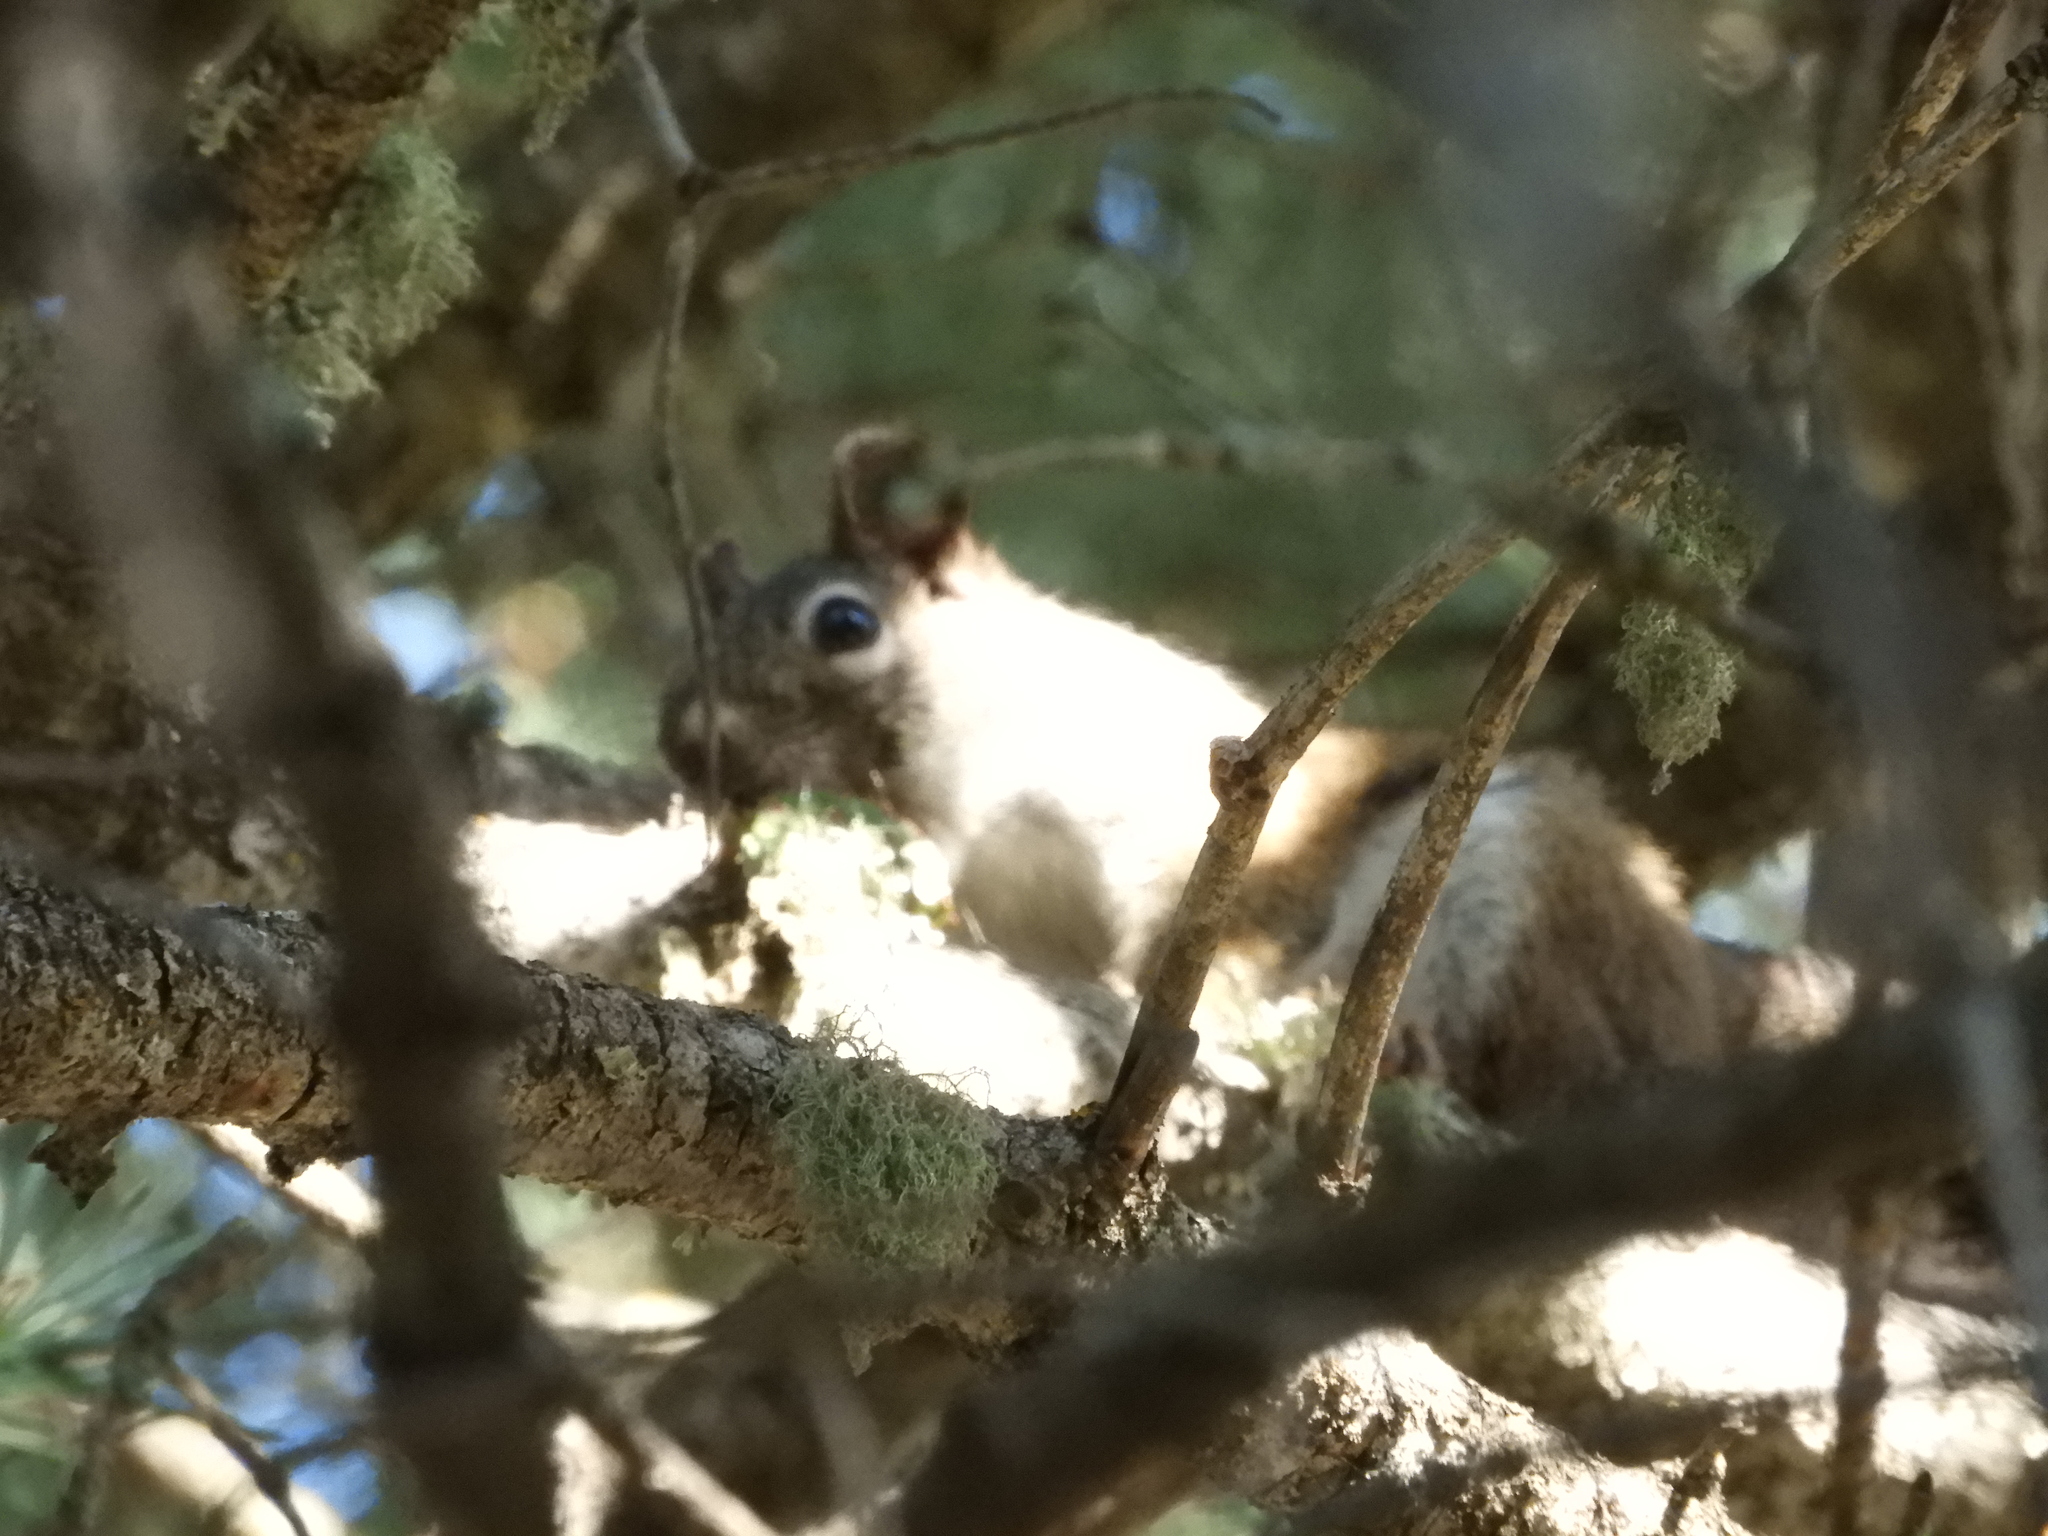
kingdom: Animalia
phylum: Chordata
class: Mammalia
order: Rodentia
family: Sciuridae
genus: Tamiasciurus
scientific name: Tamiasciurus hudsonicus
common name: Red squirrel
